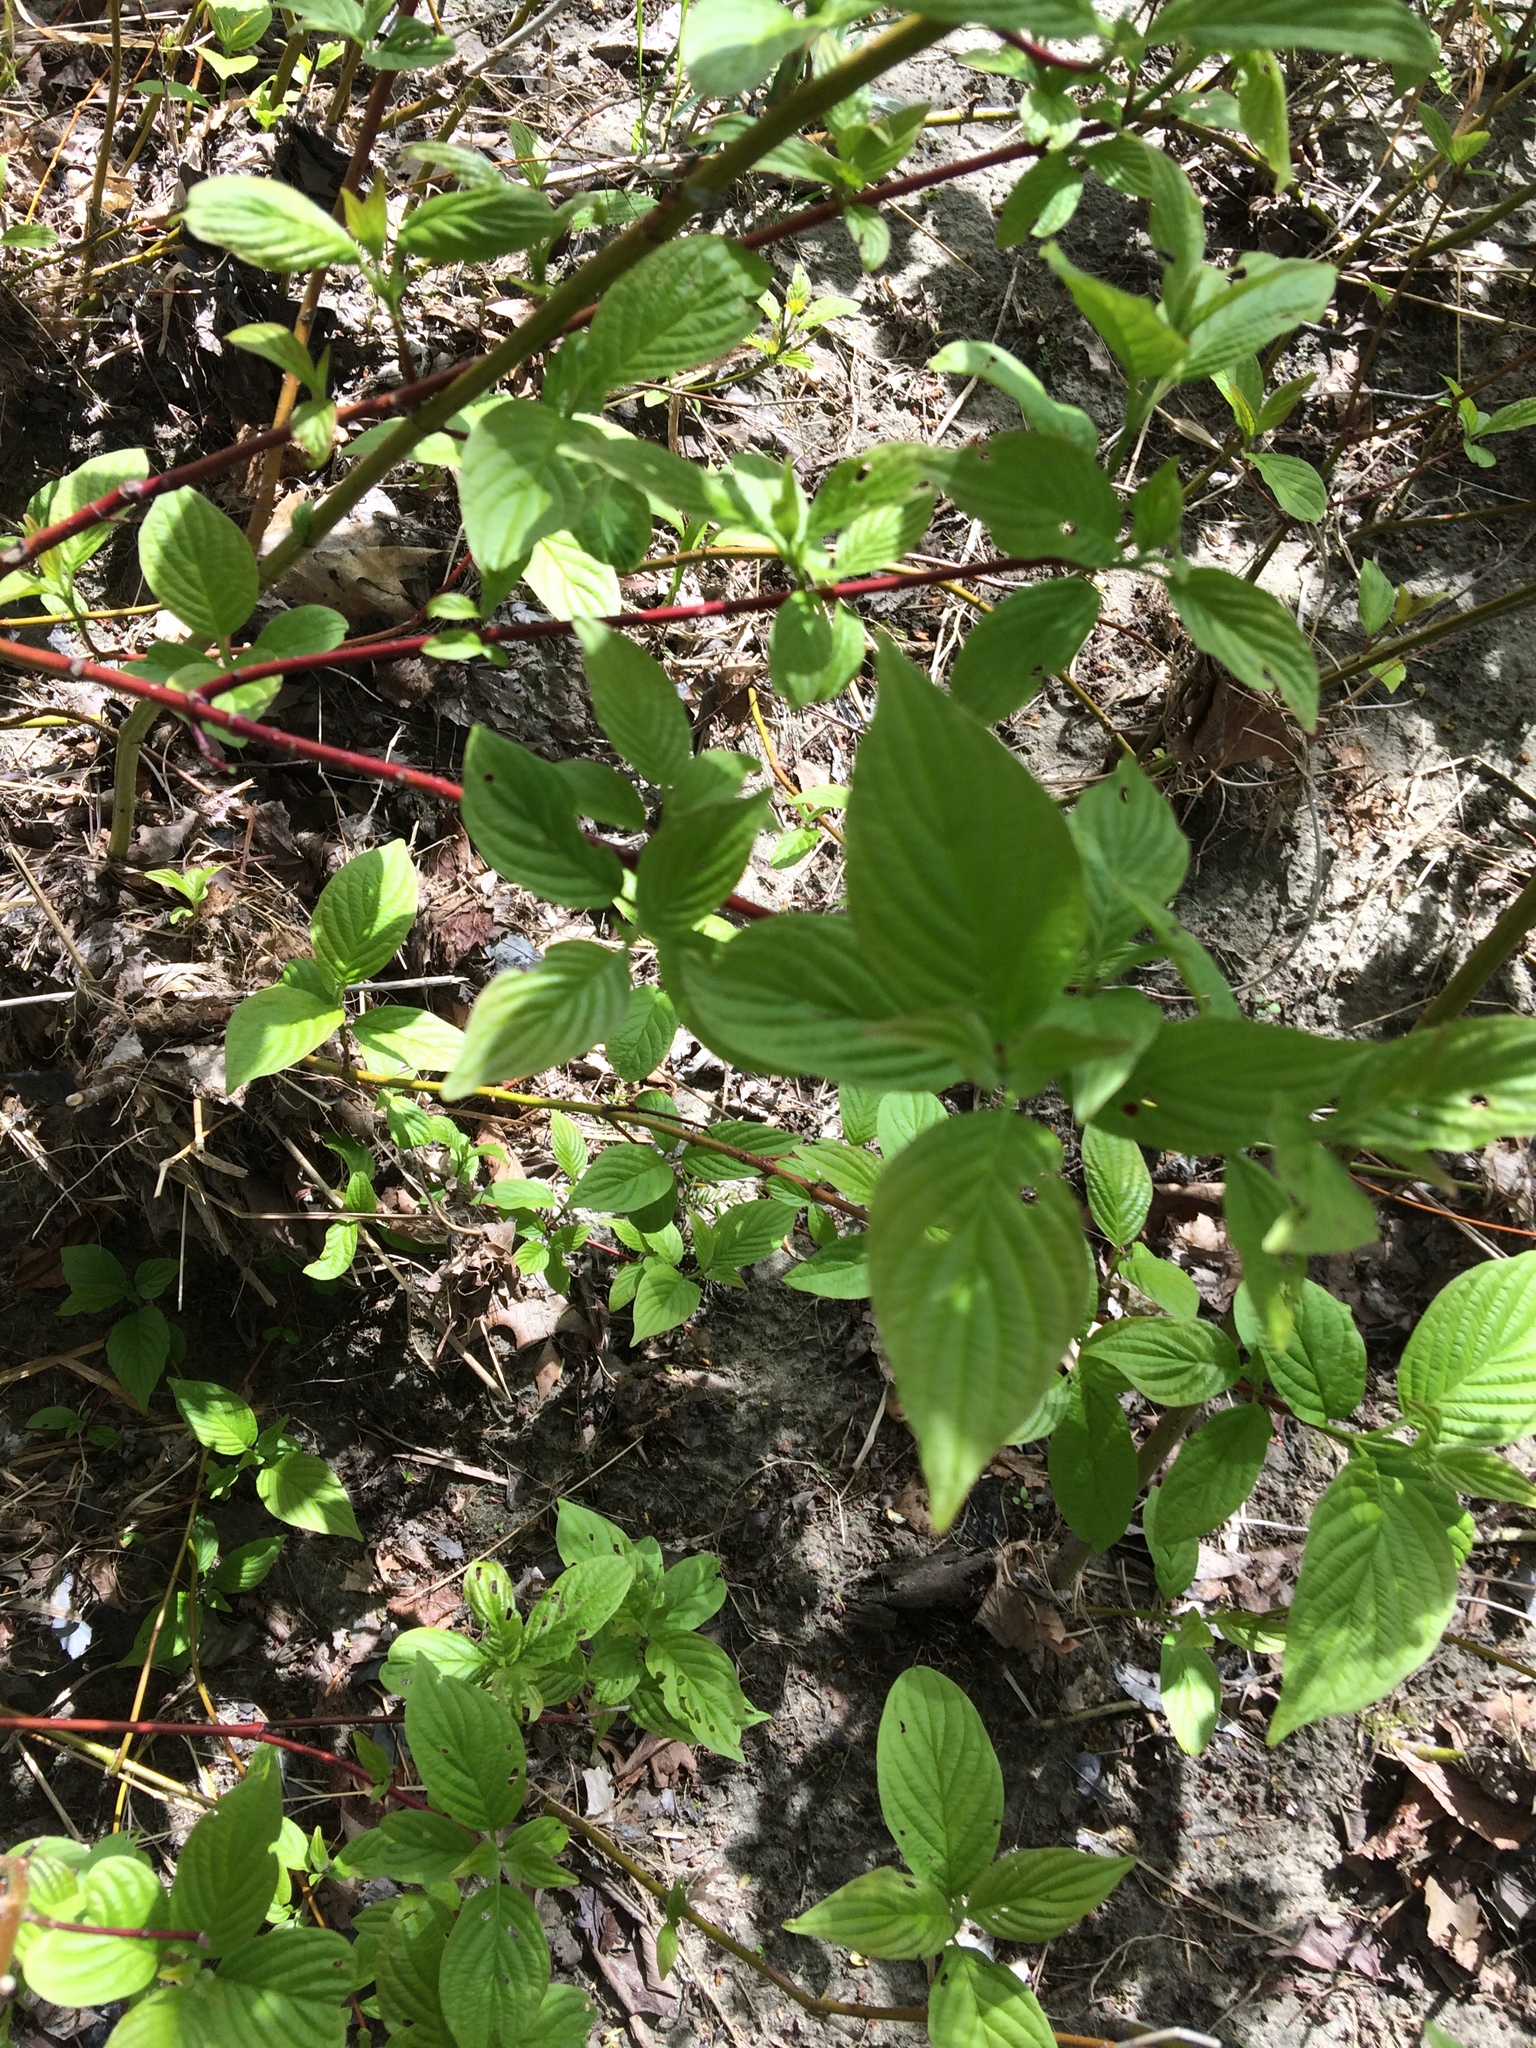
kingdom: Plantae
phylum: Tracheophyta
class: Magnoliopsida
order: Cornales
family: Cornaceae
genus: Cornus
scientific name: Cornus sericea
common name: Red-osier dogwood
